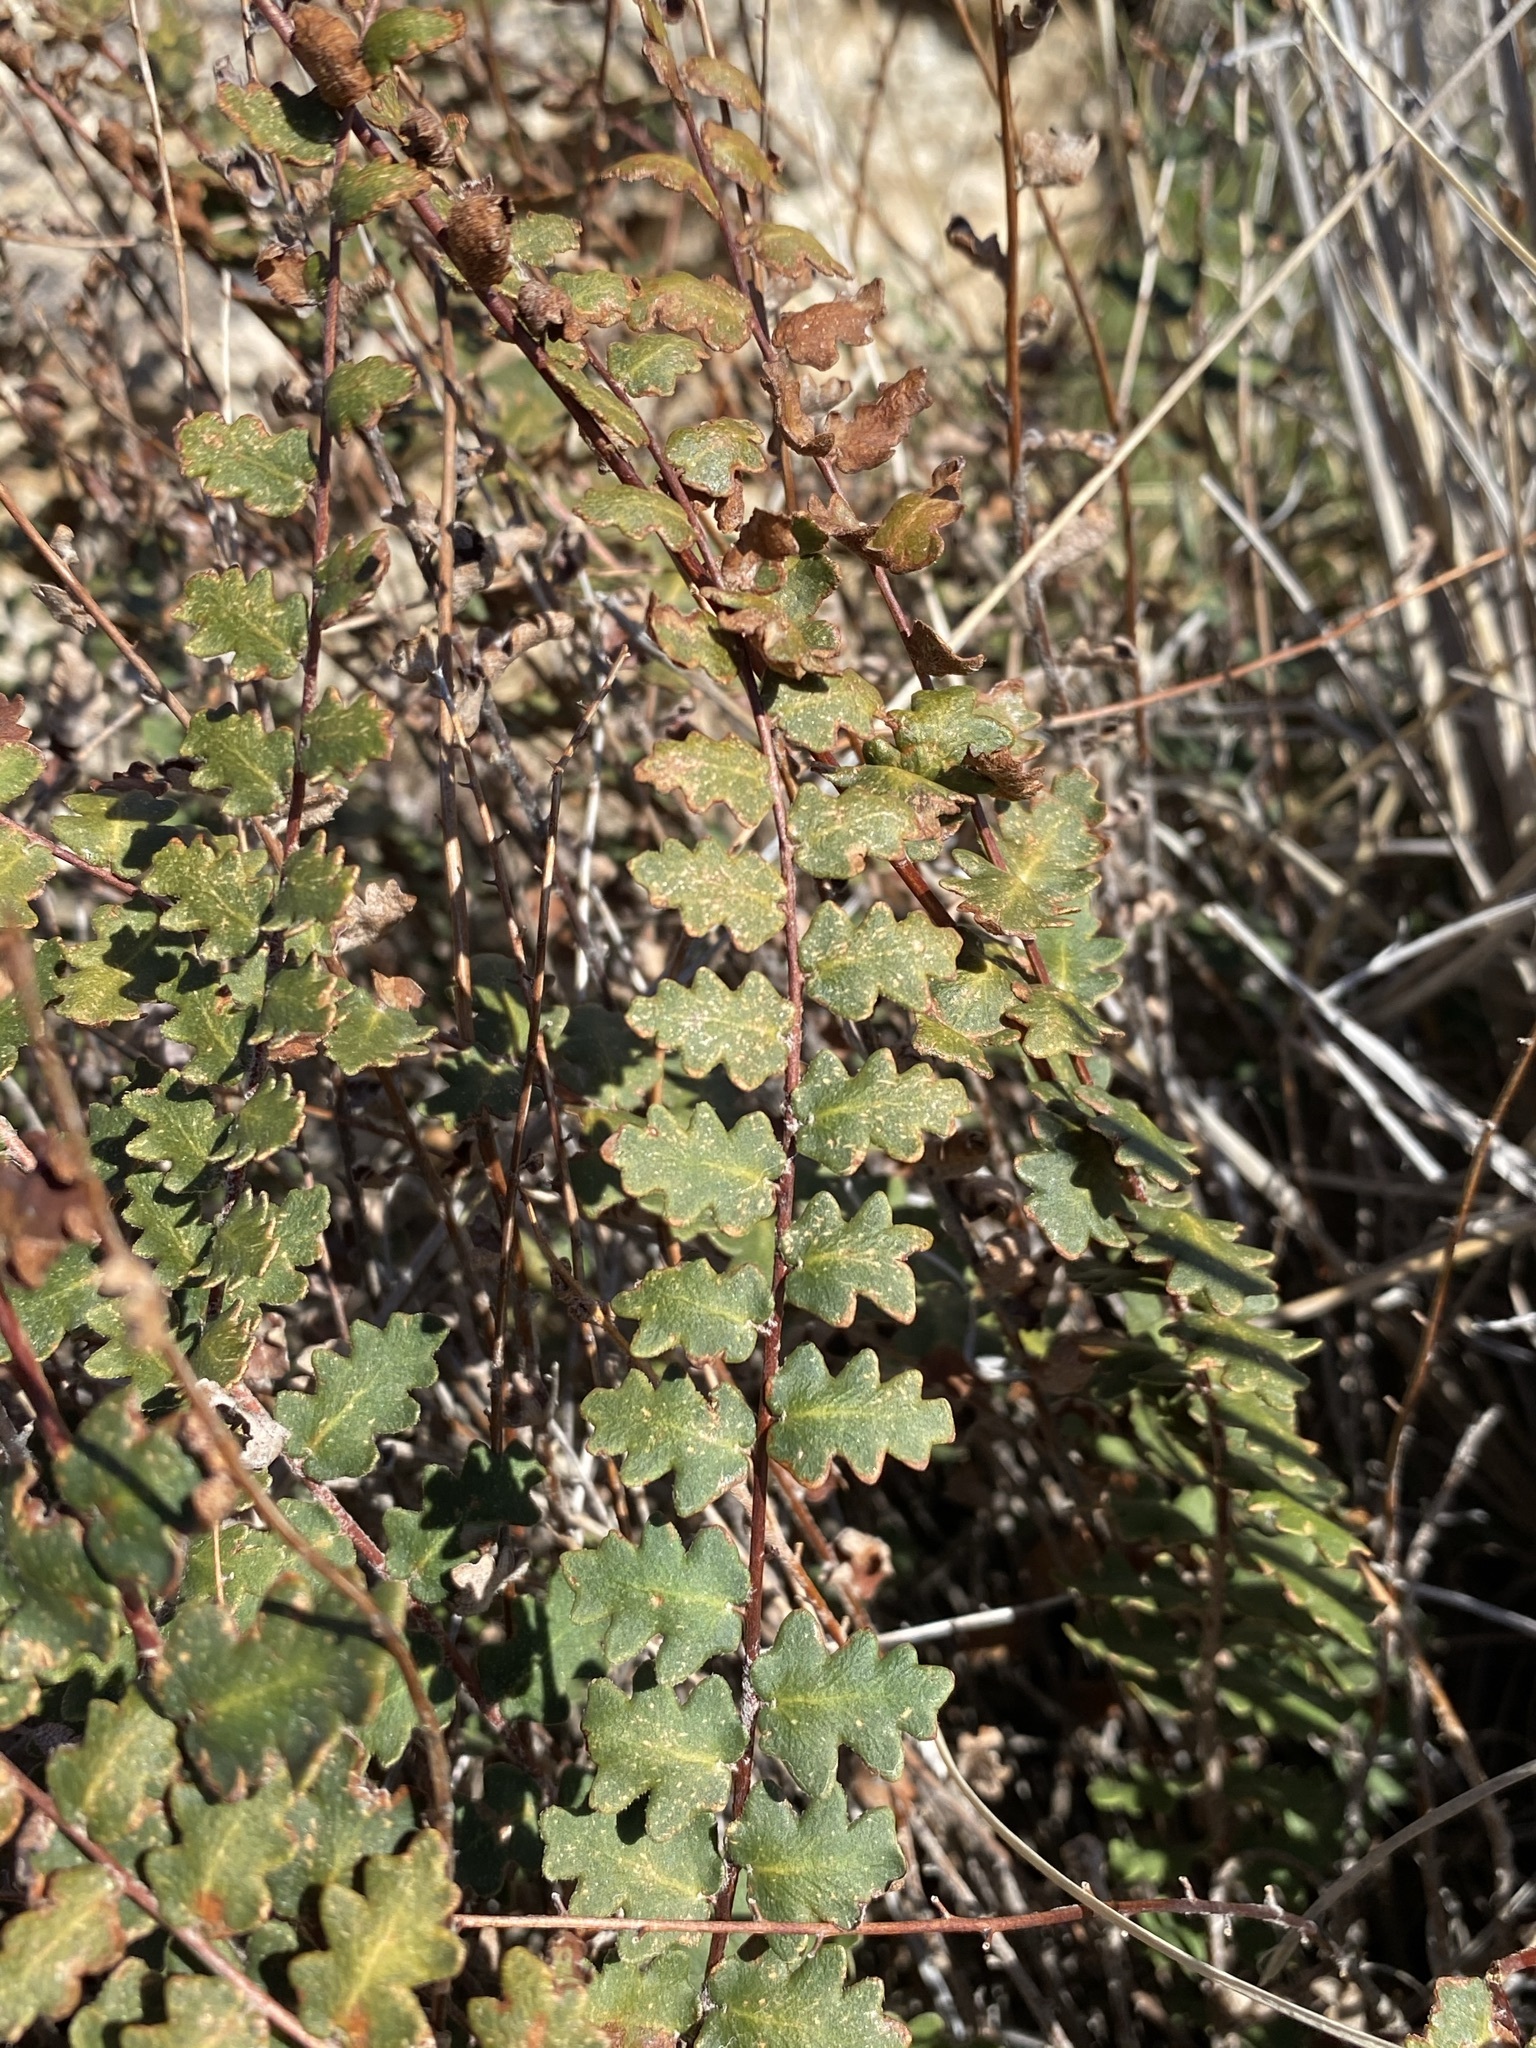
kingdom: Plantae
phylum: Tracheophyta
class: Polypodiopsida
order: Polypodiales
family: Pteridaceae
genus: Astrolepis
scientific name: Astrolepis sinuata
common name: Wavy scaly cloakfern
